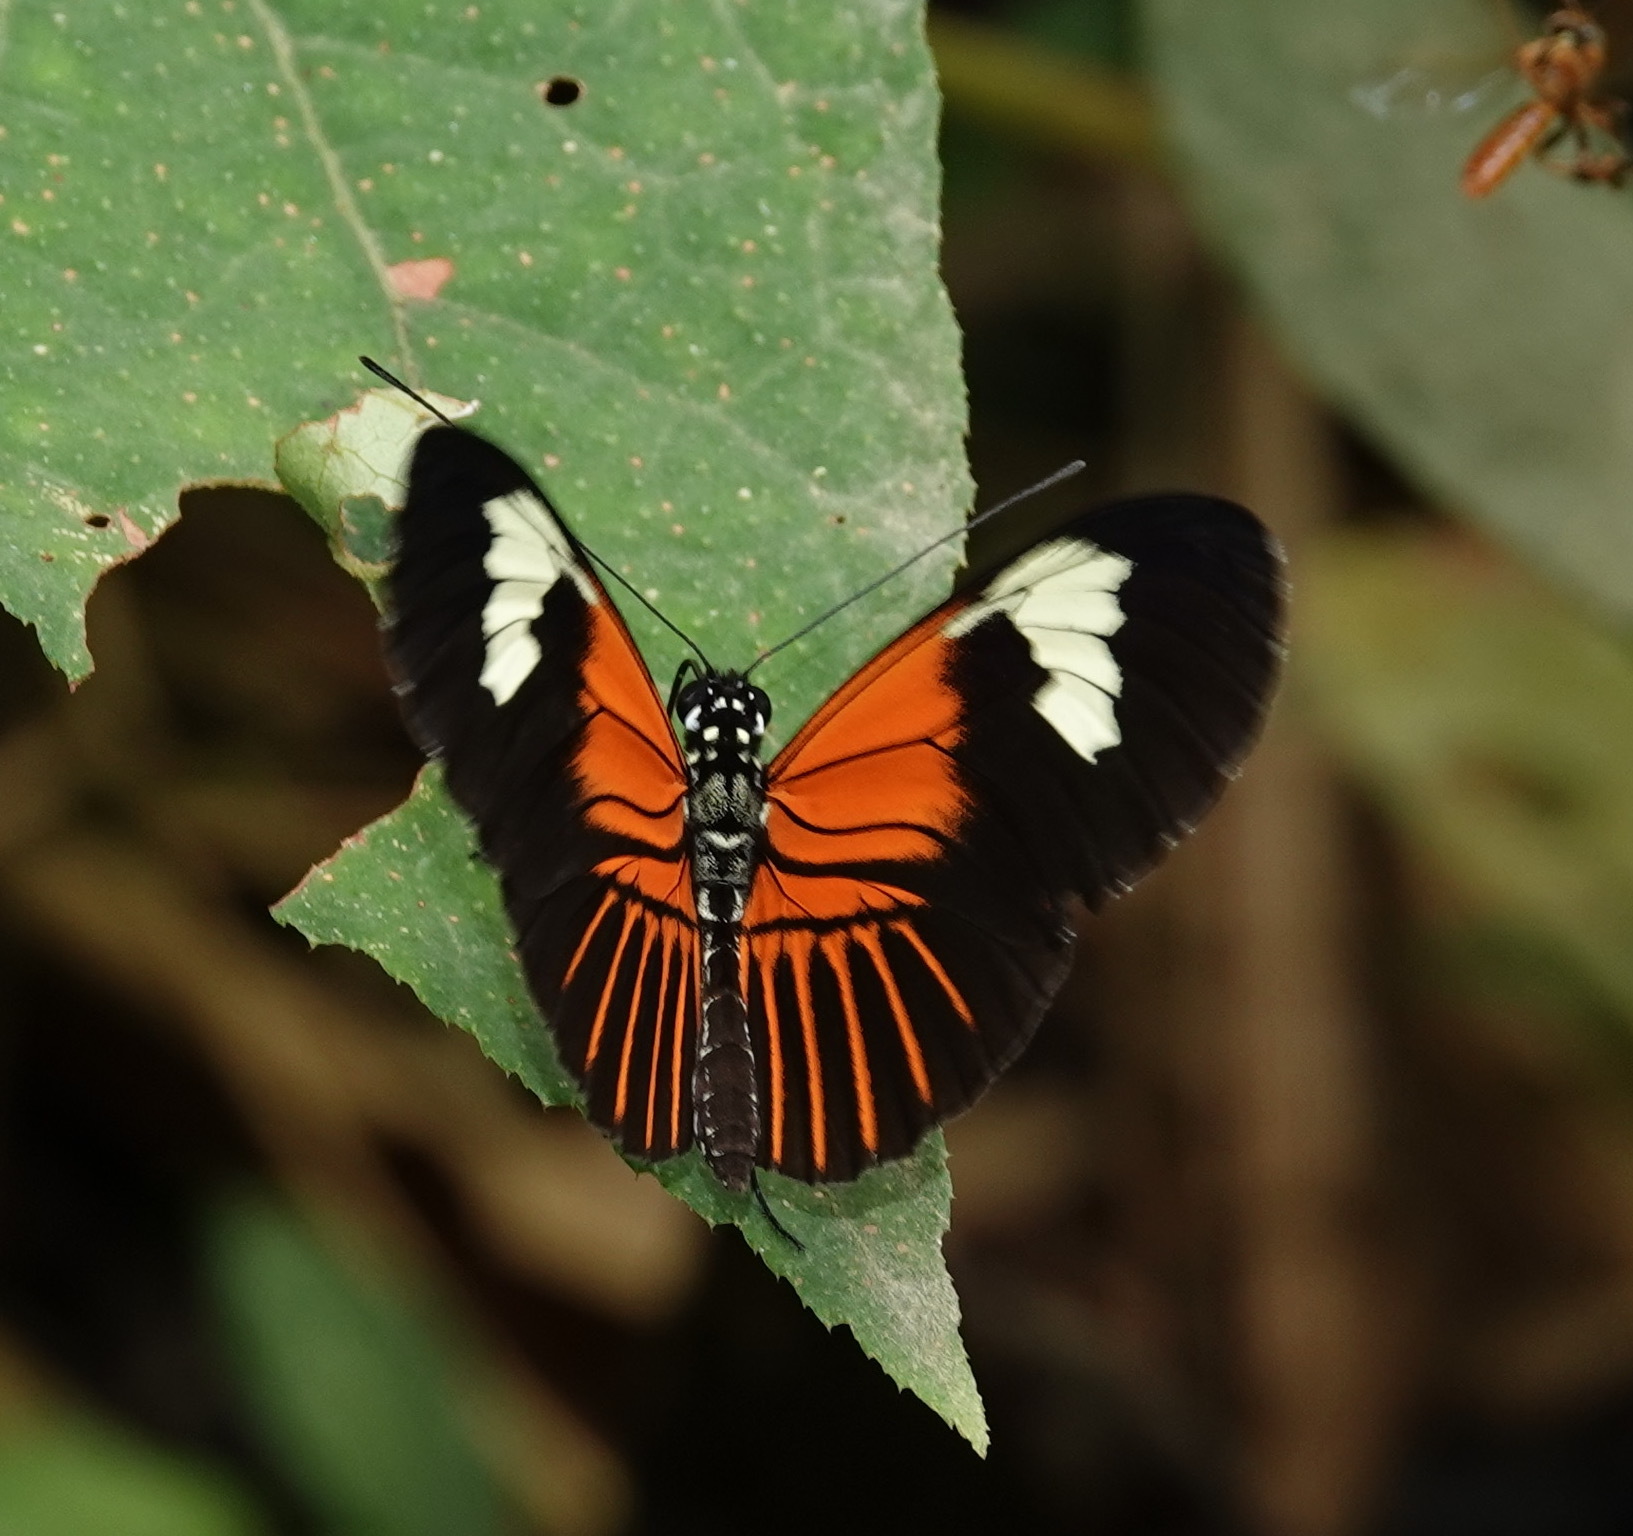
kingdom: Animalia
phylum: Arthropoda
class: Insecta
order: Lepidoptera
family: Nymphalidae
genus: Heliconius
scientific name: Heliconius melpomene
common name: Postman
